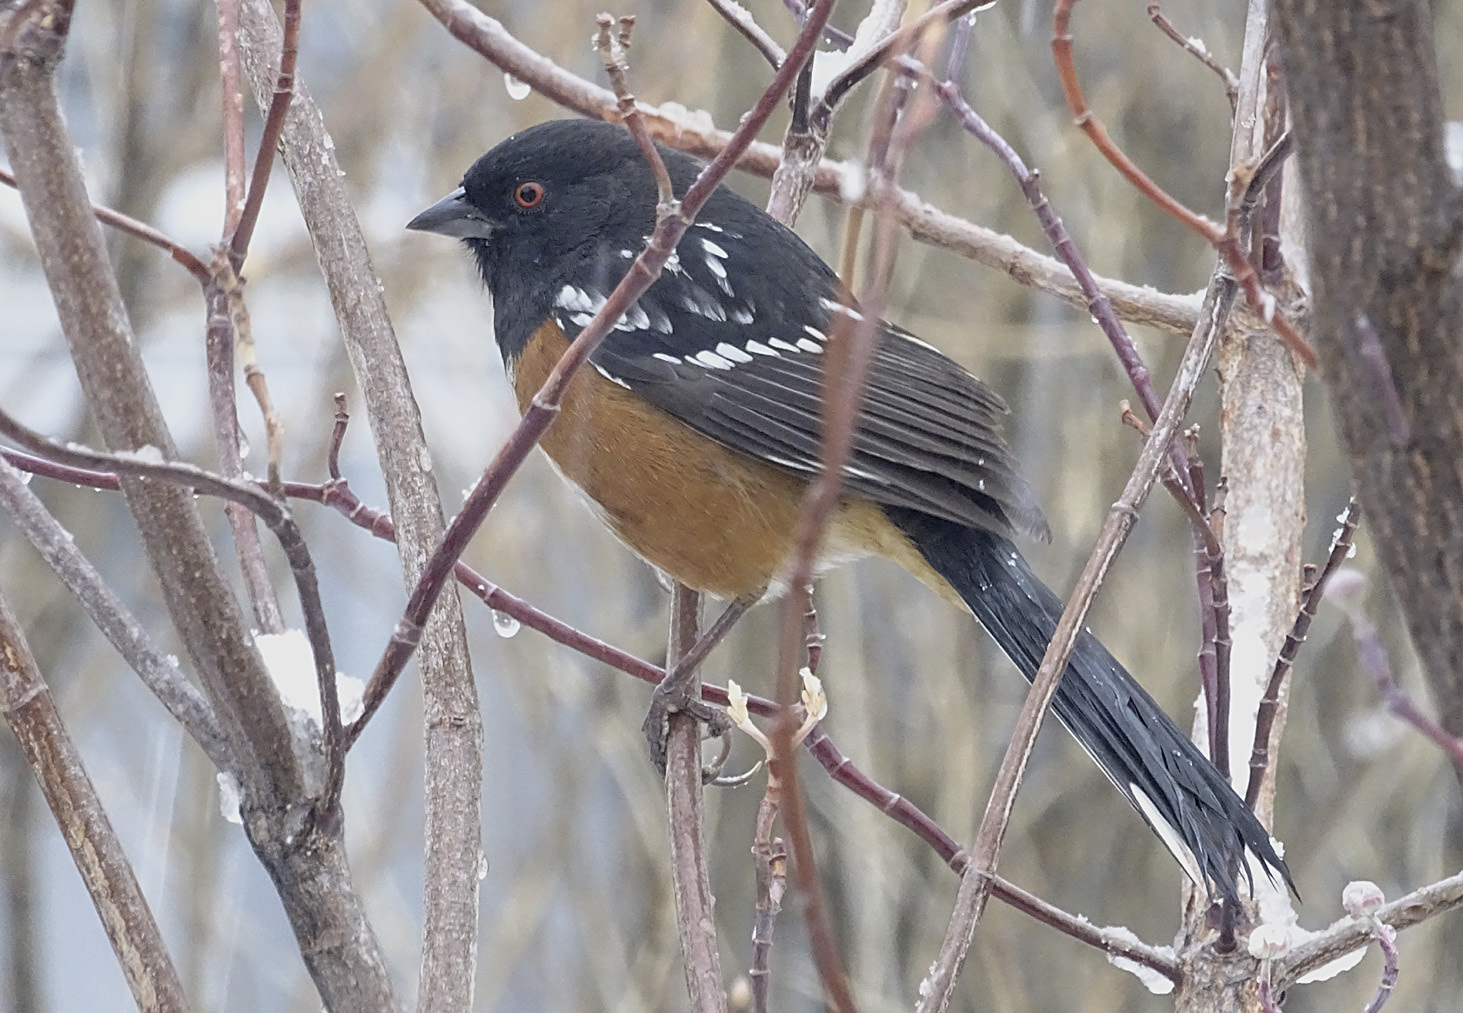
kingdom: Animalia
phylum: Chordata
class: Aves
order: Passeriformes
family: Passerellidae
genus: Pipilo
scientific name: Pipilo maculatus
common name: Spotted towhee
